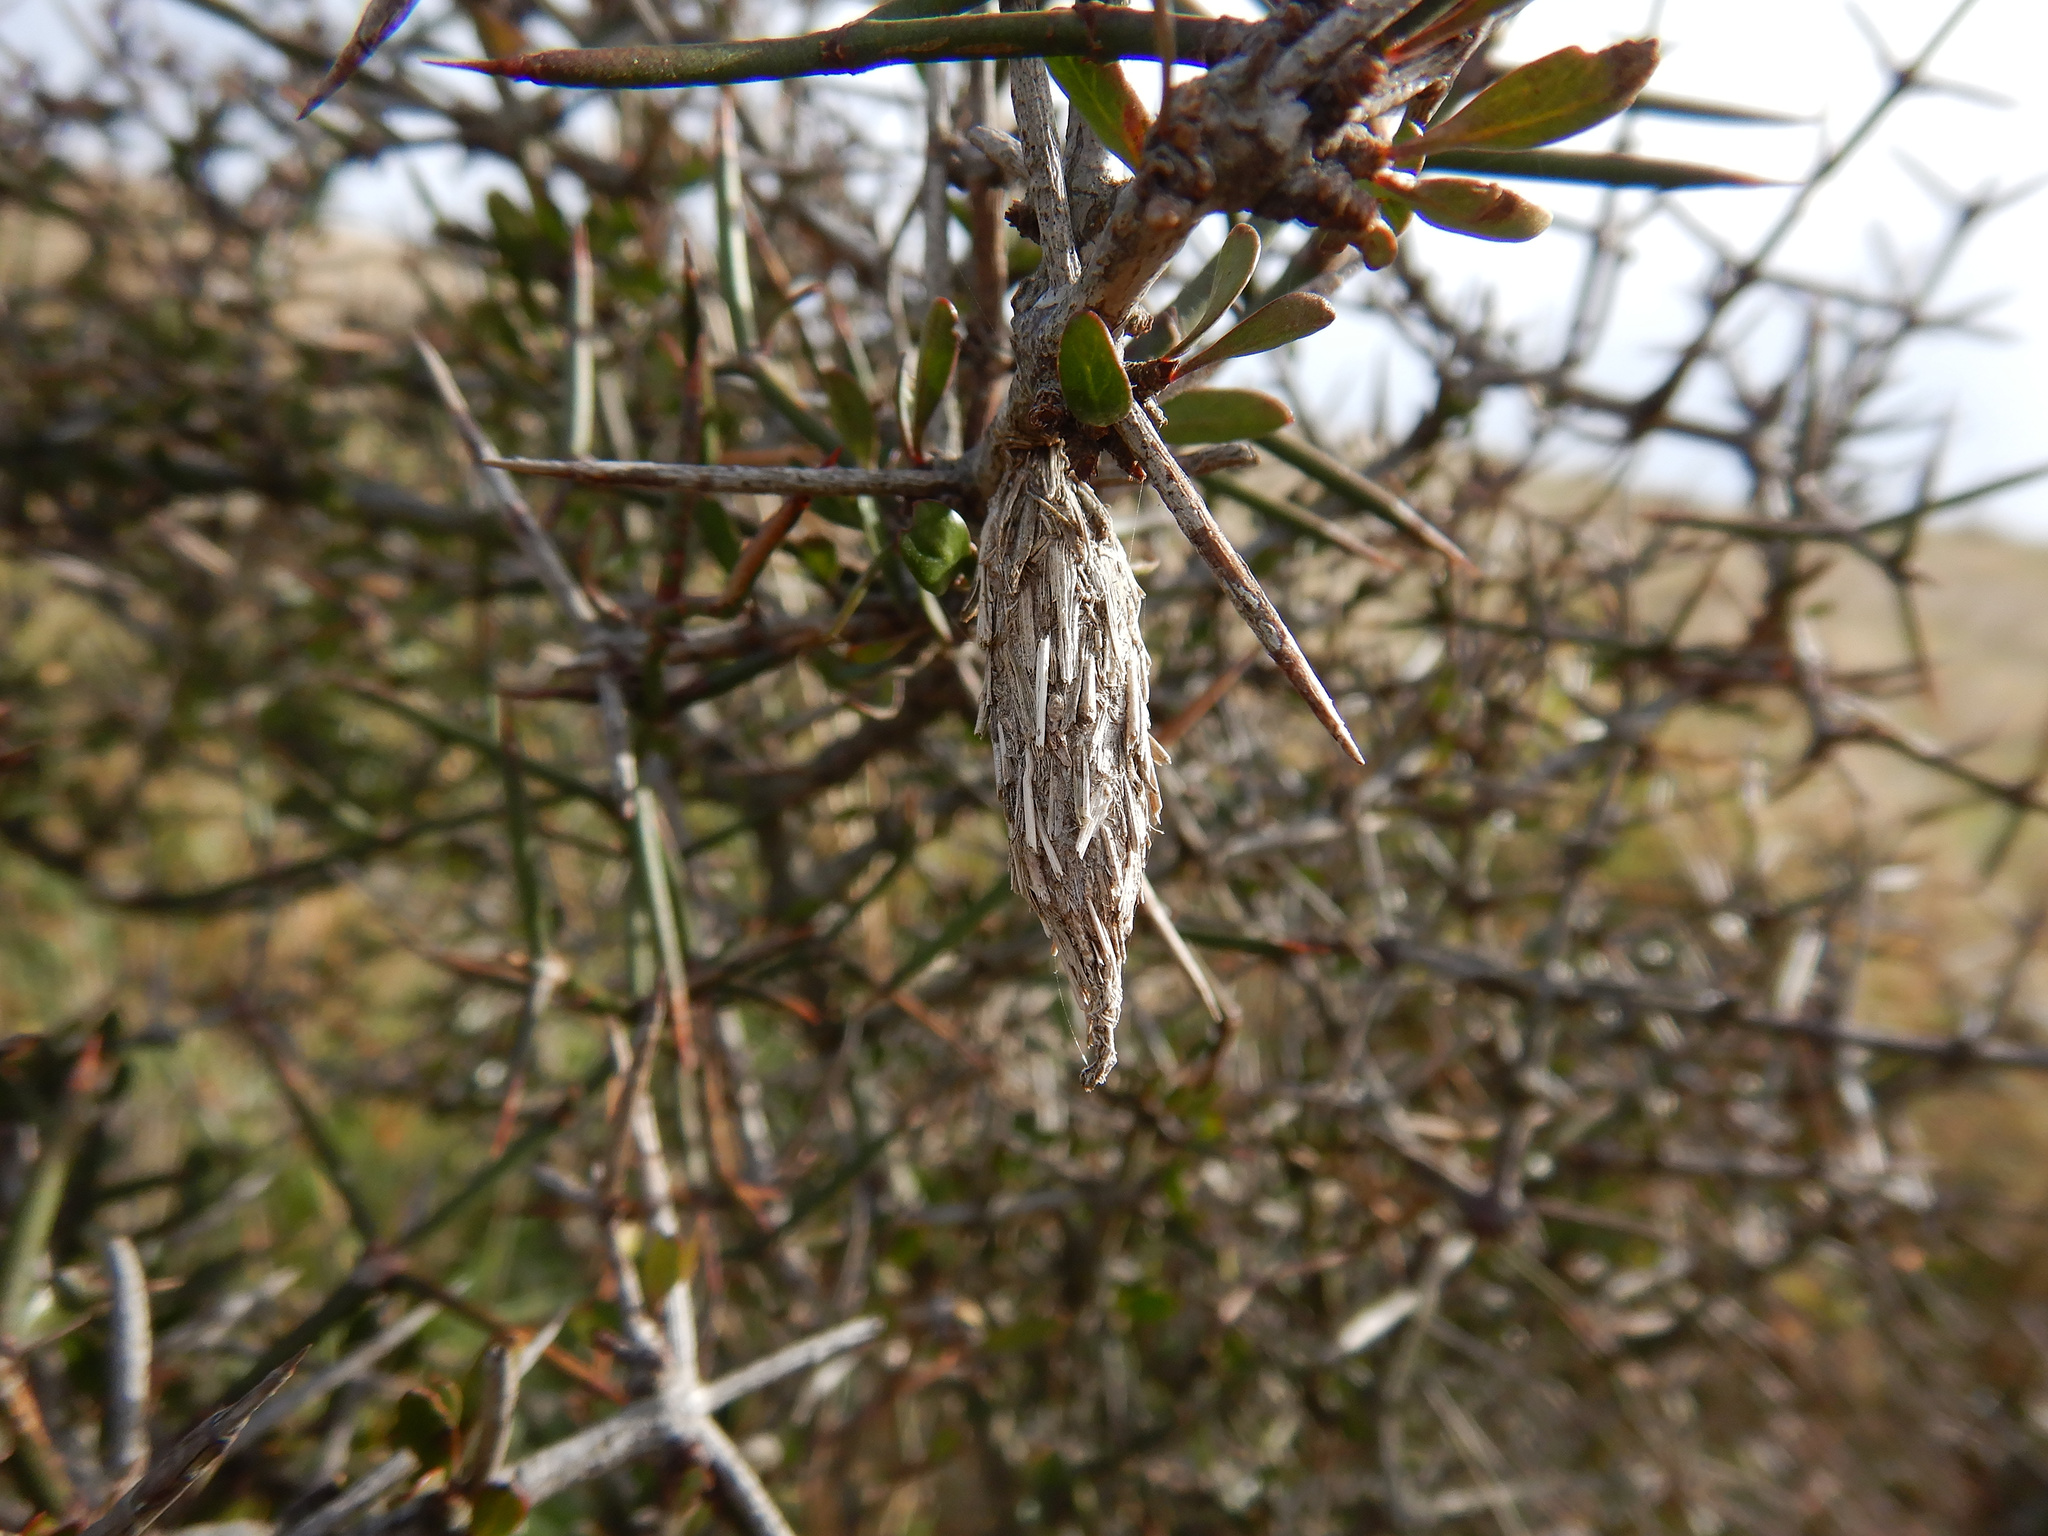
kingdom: Animalia
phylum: Arthropoda
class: Insecta
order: Lepidoptera
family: Psychidae
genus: Liothula
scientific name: Liothula omnivora
